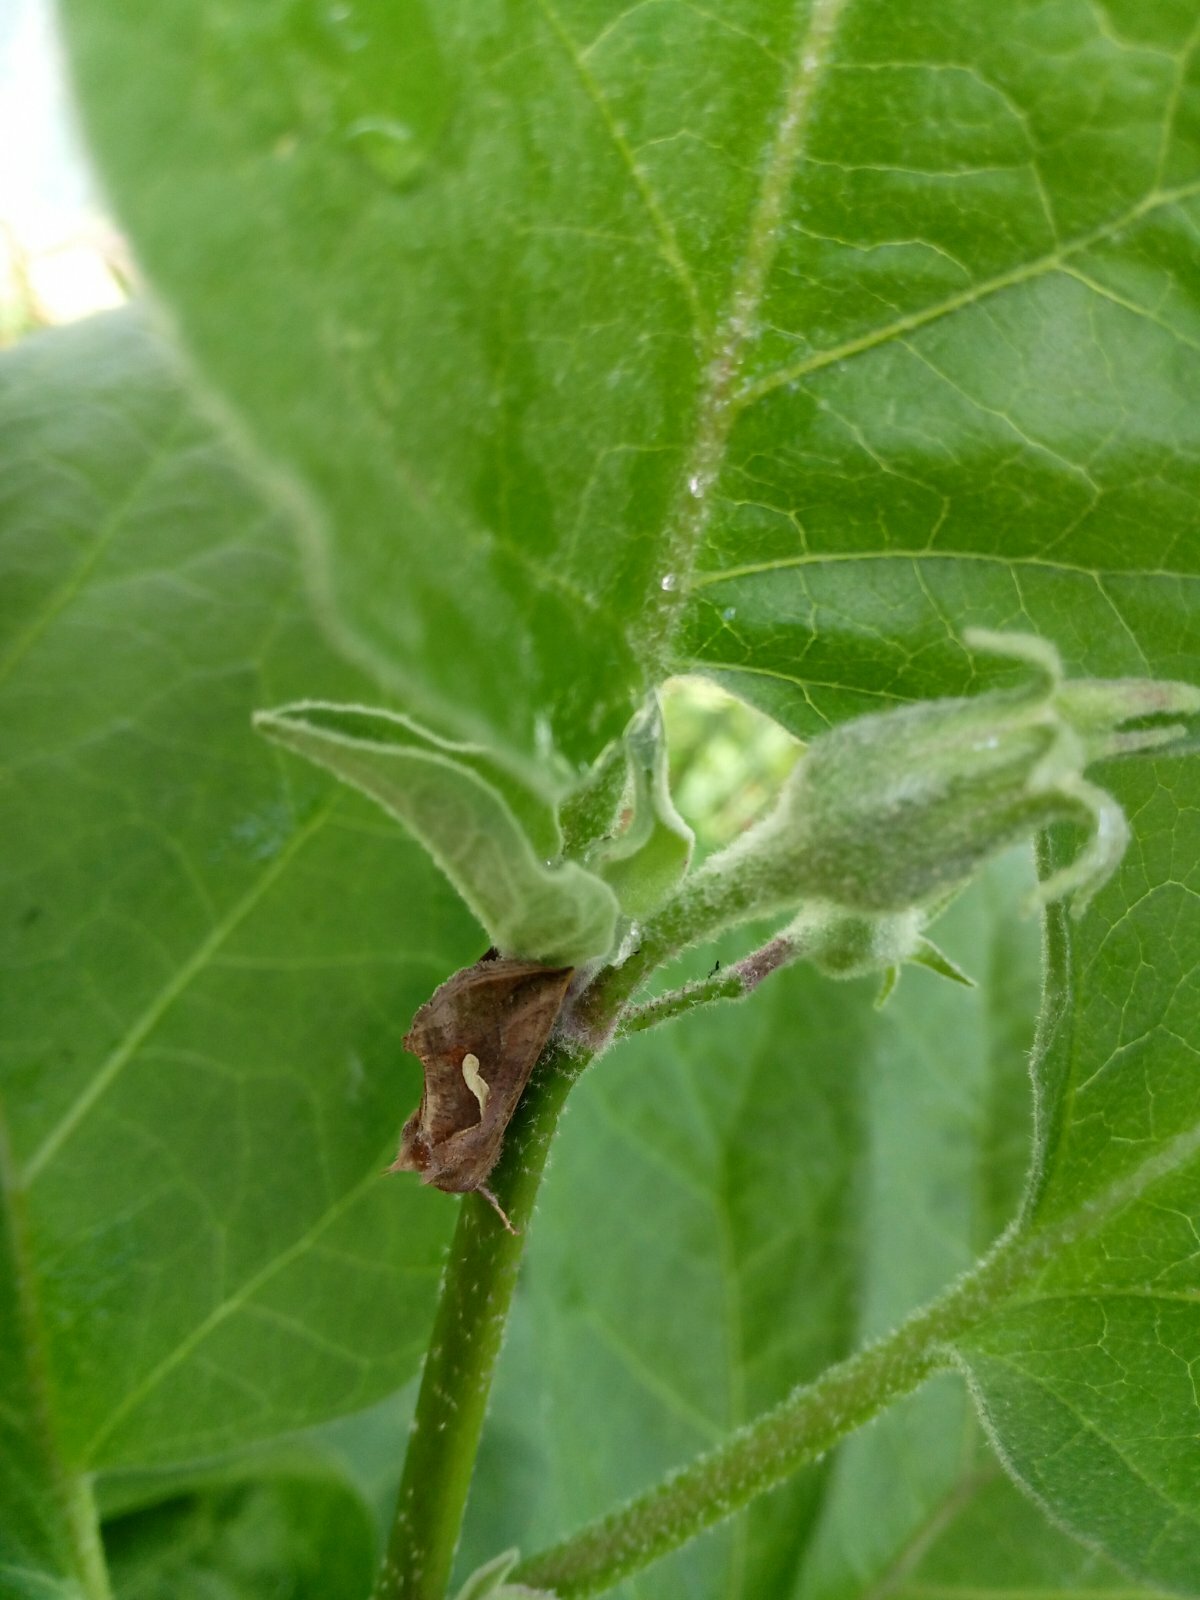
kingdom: Animalia
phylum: Arthropoda
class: Insecta
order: Lepidoptera
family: Noctuidae
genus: Macdunnoughia
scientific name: Macdunnoughia confusa
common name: Dewick's plusia
